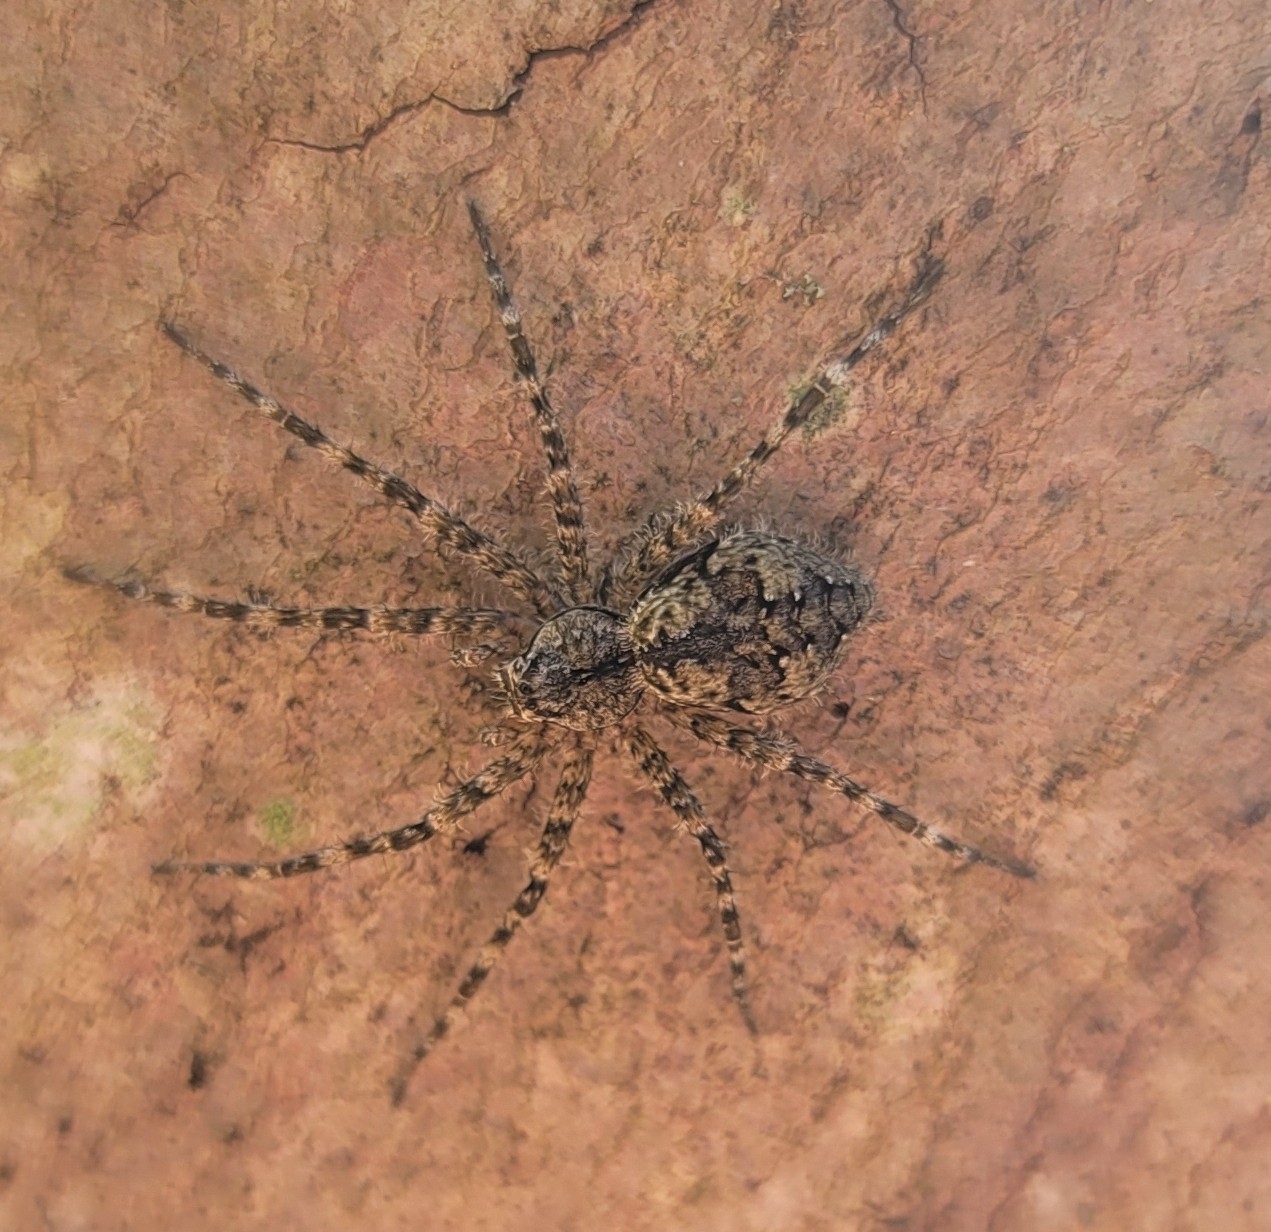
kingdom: Animalia
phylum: Arthropoda
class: Arachnida
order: Araneae
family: Pisauridae
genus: Dolomedes
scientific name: Dolomedes albineus
